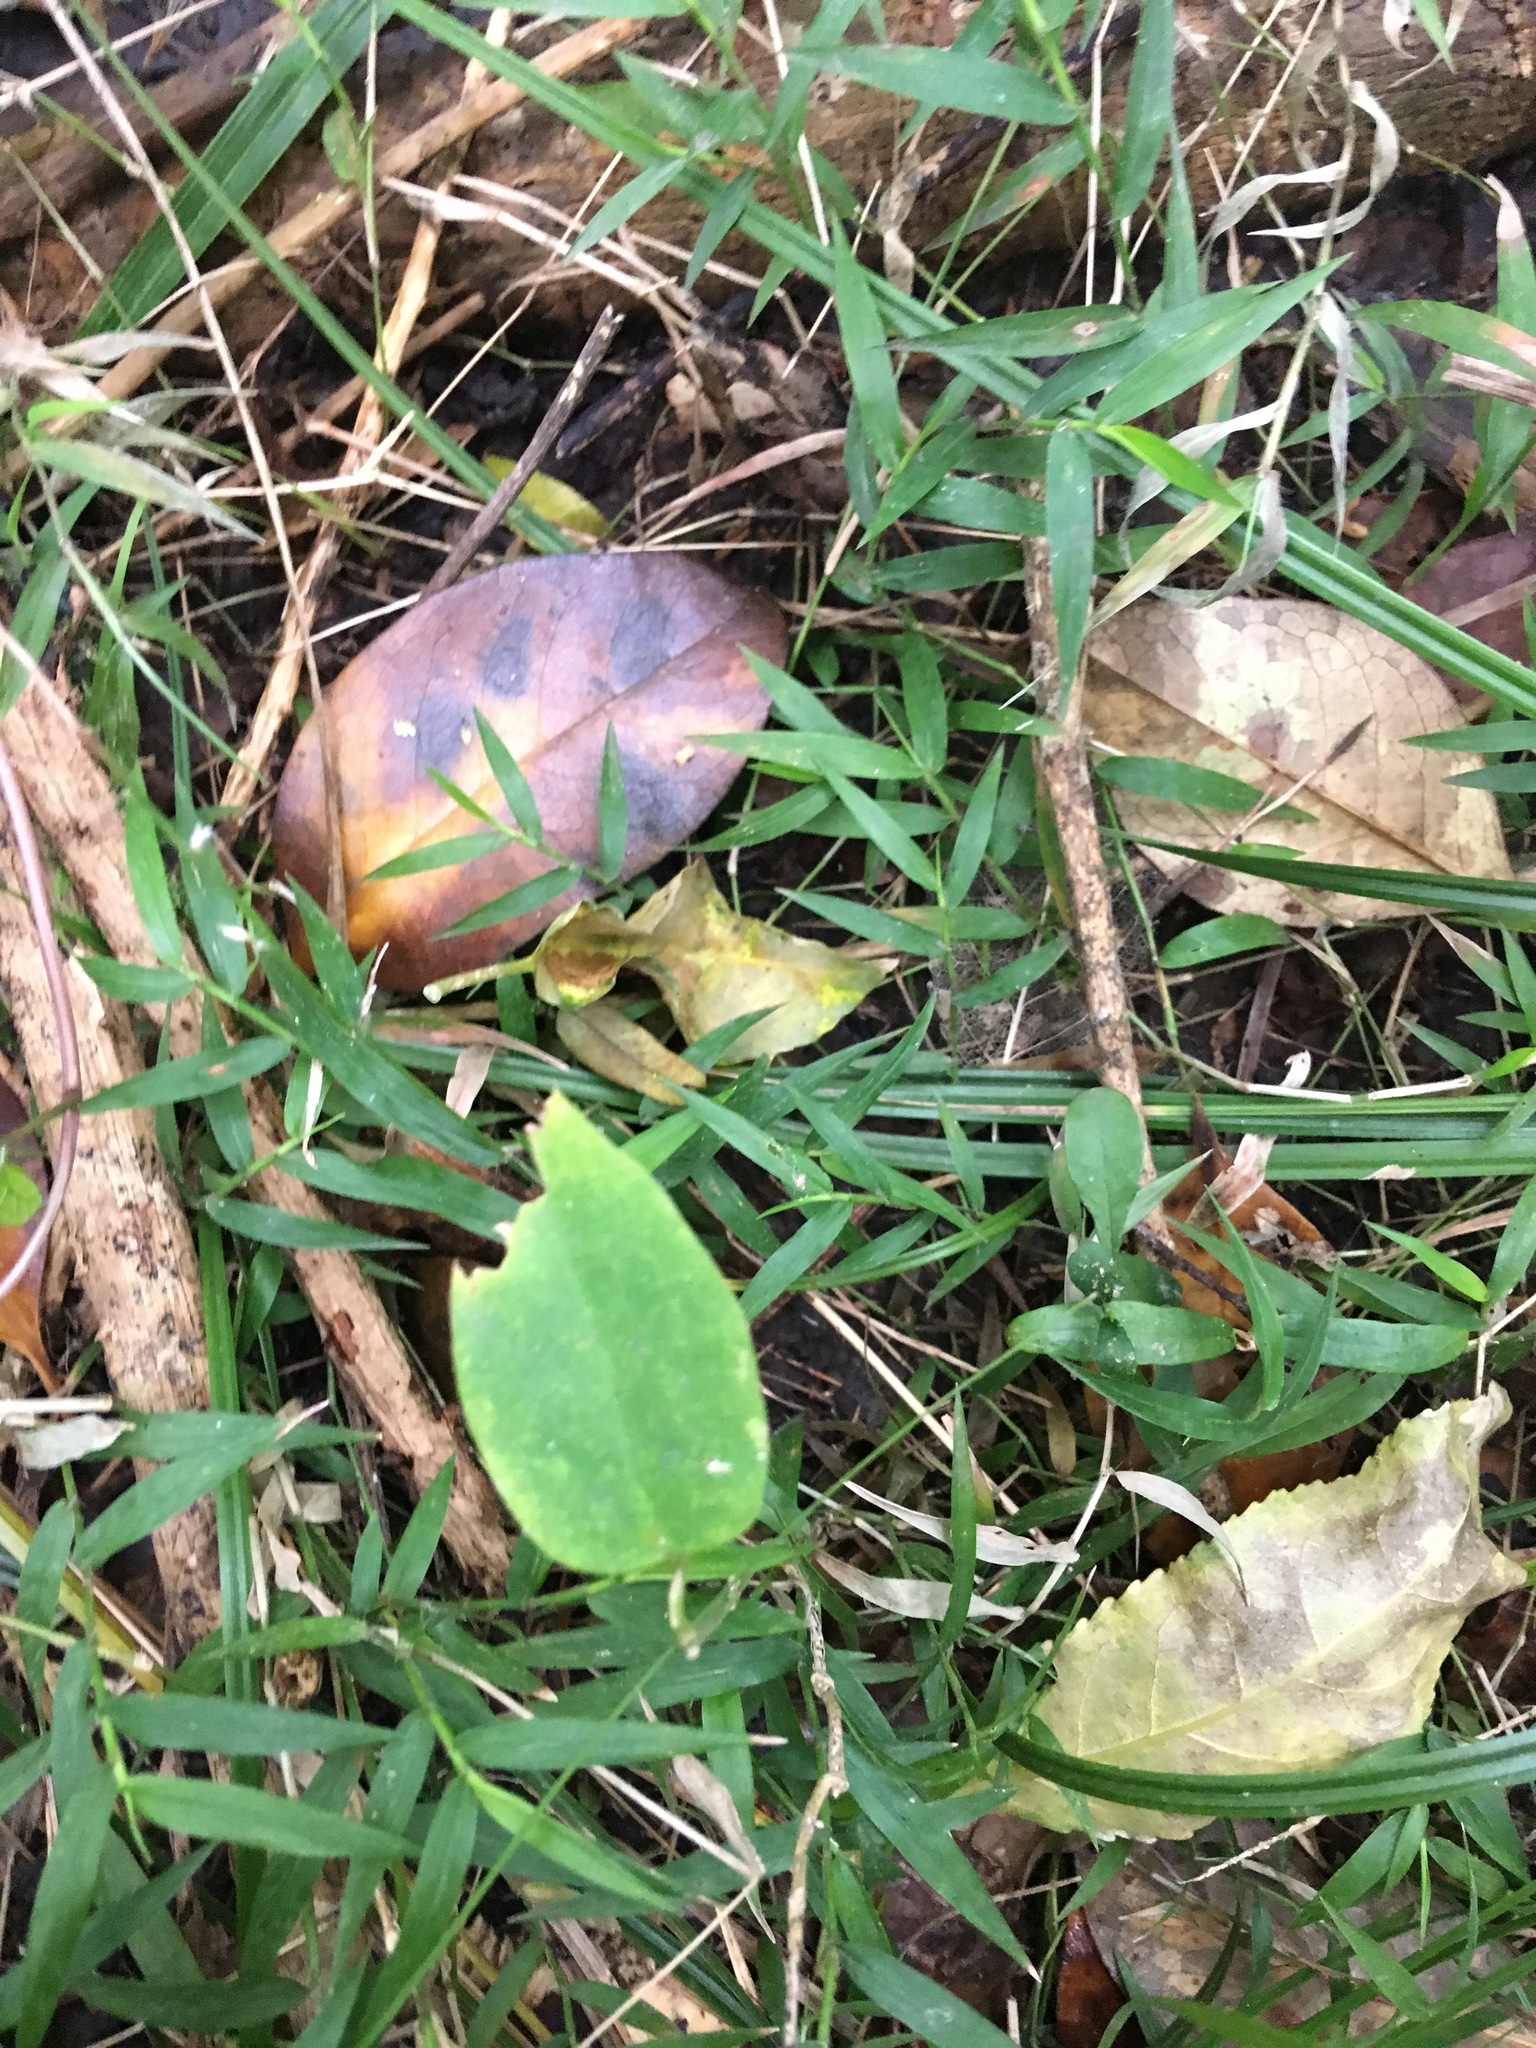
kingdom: Plantae
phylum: Tracheophyta
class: Magnoliopsida
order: Gentianales
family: Apocynaceae
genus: Araujia
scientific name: Araujia sericifera
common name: White bladderflower
